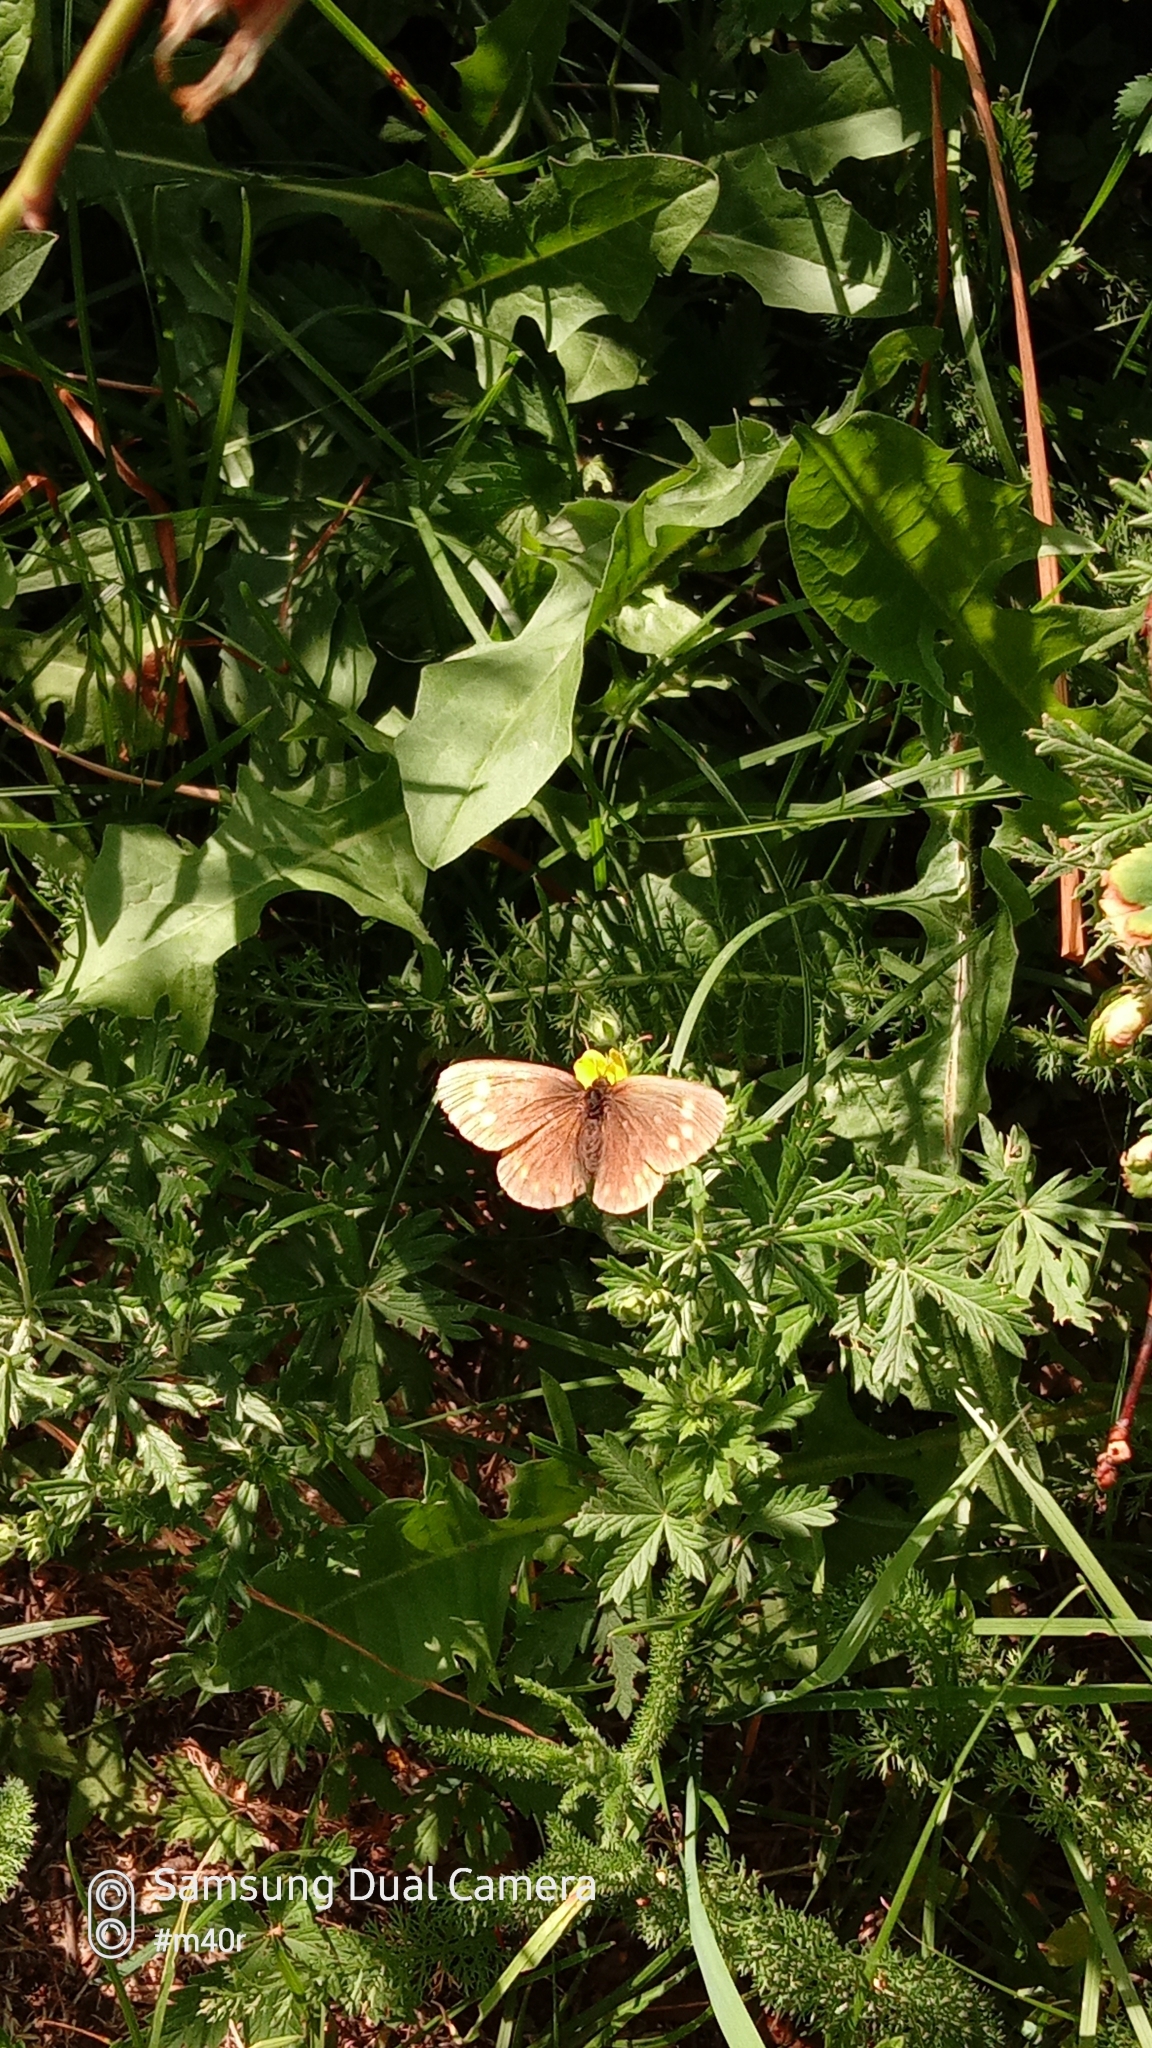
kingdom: Animalia
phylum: Arthropoda
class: Insecta
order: Lepidoptera
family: Nymphalidae
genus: Erebia
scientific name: Erebia turanica
